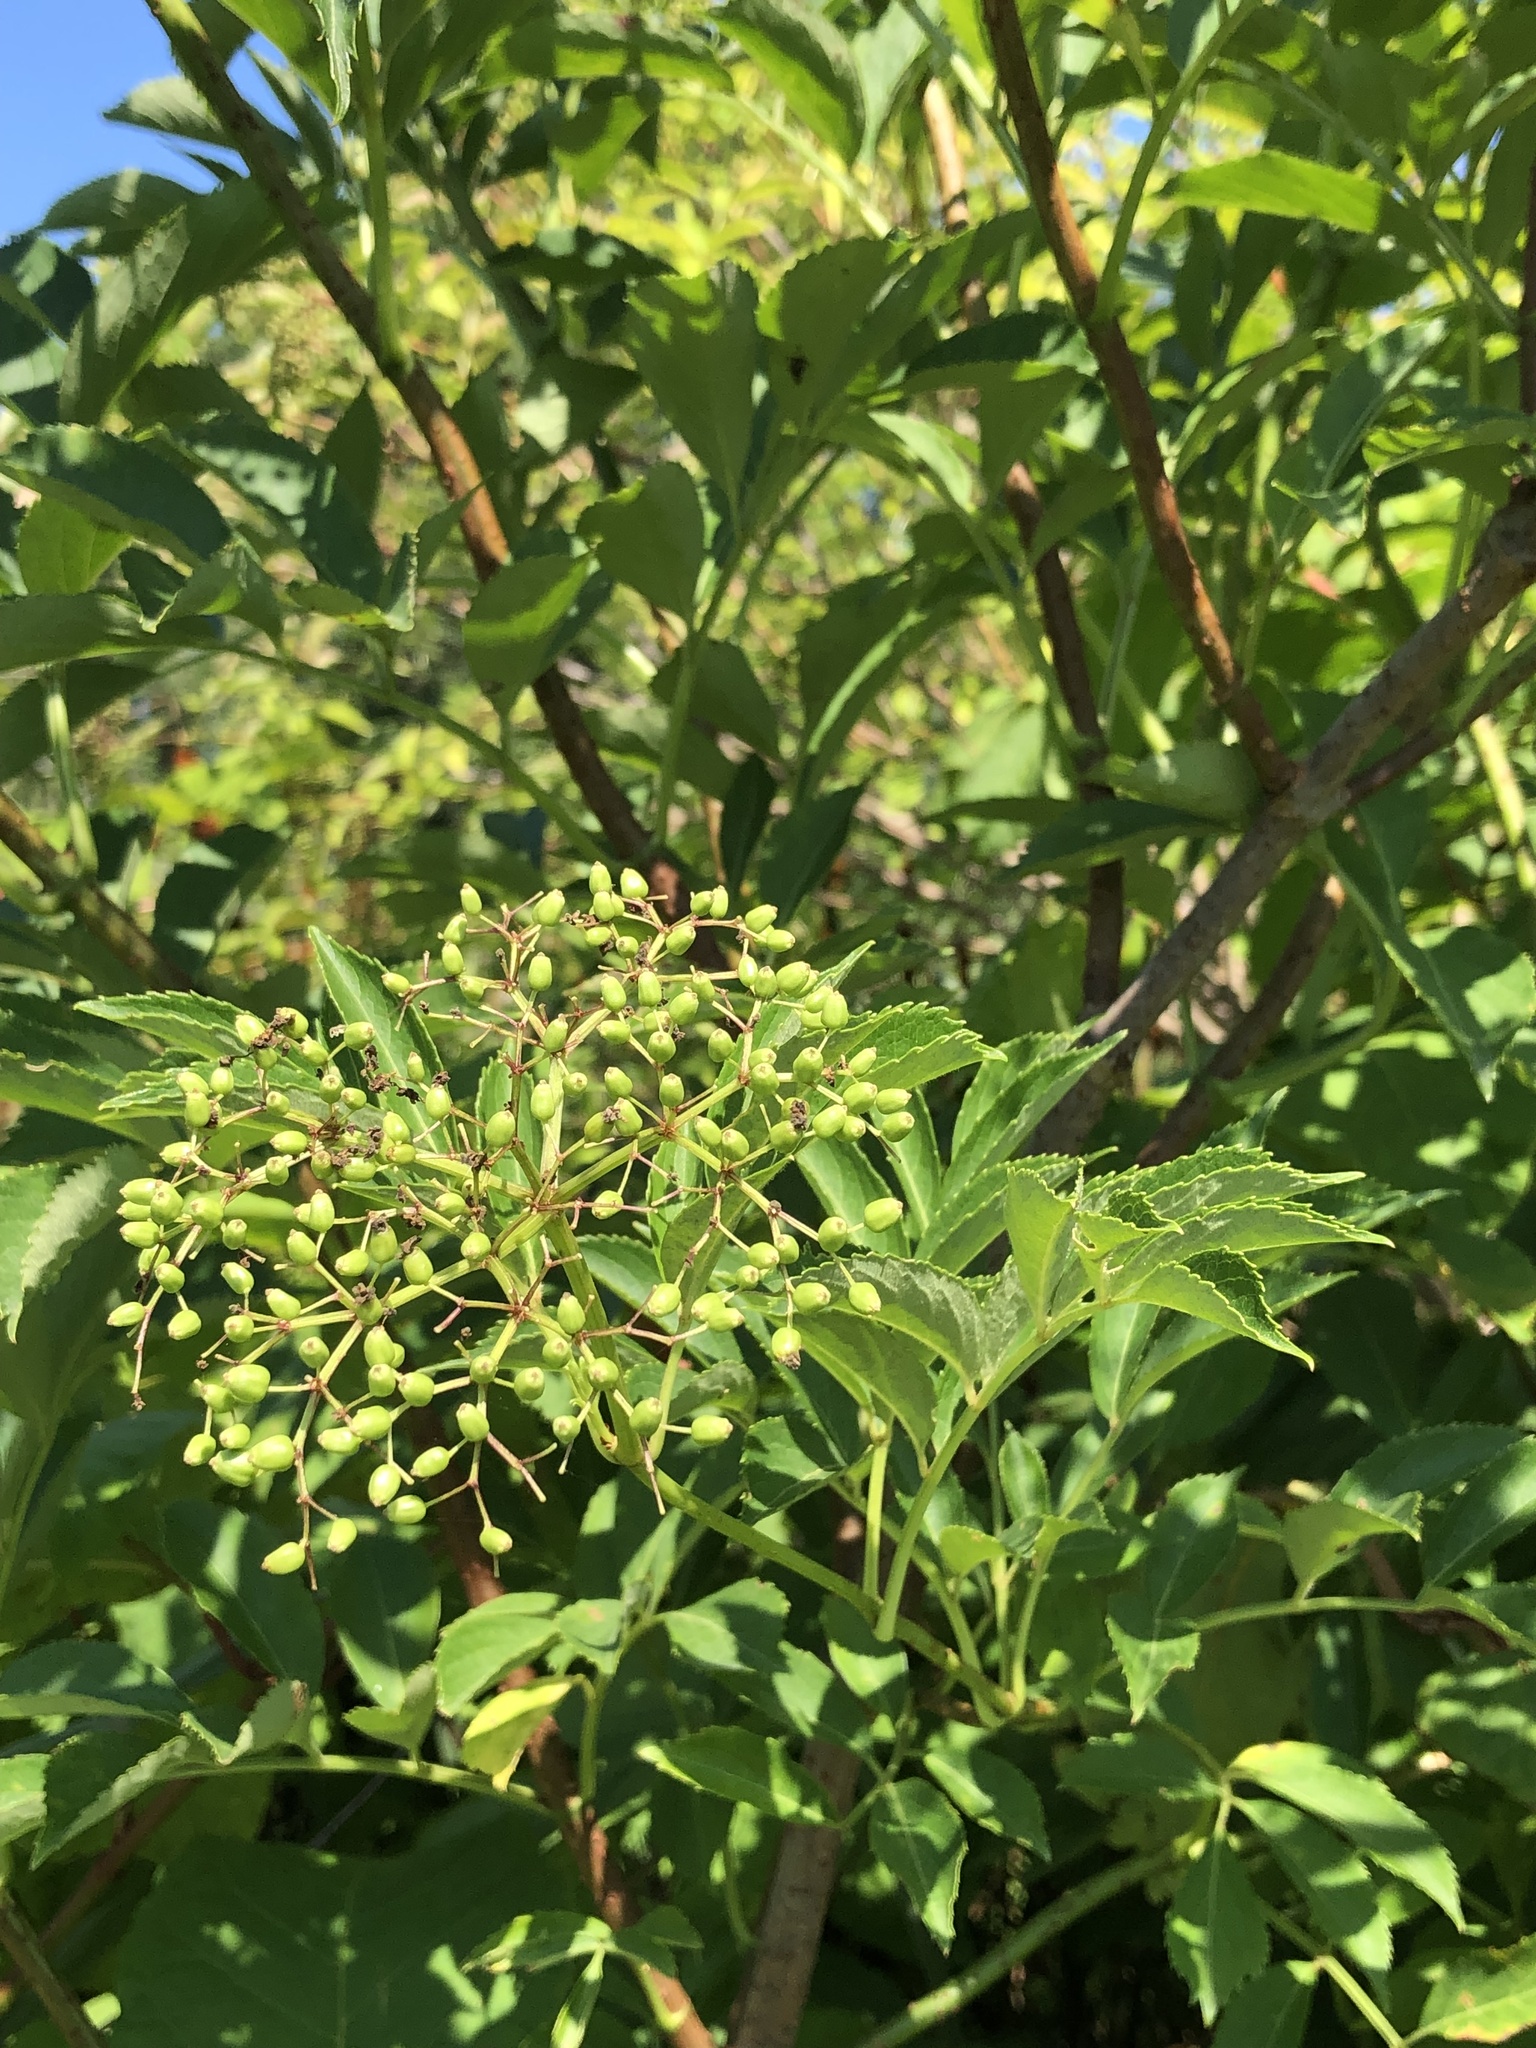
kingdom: Plantae
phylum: Tracheophyta
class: Magnoliopsida
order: Dipsacales
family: Viburnaceae
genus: Sambucus
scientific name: Sambucus canadensis
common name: American elder
